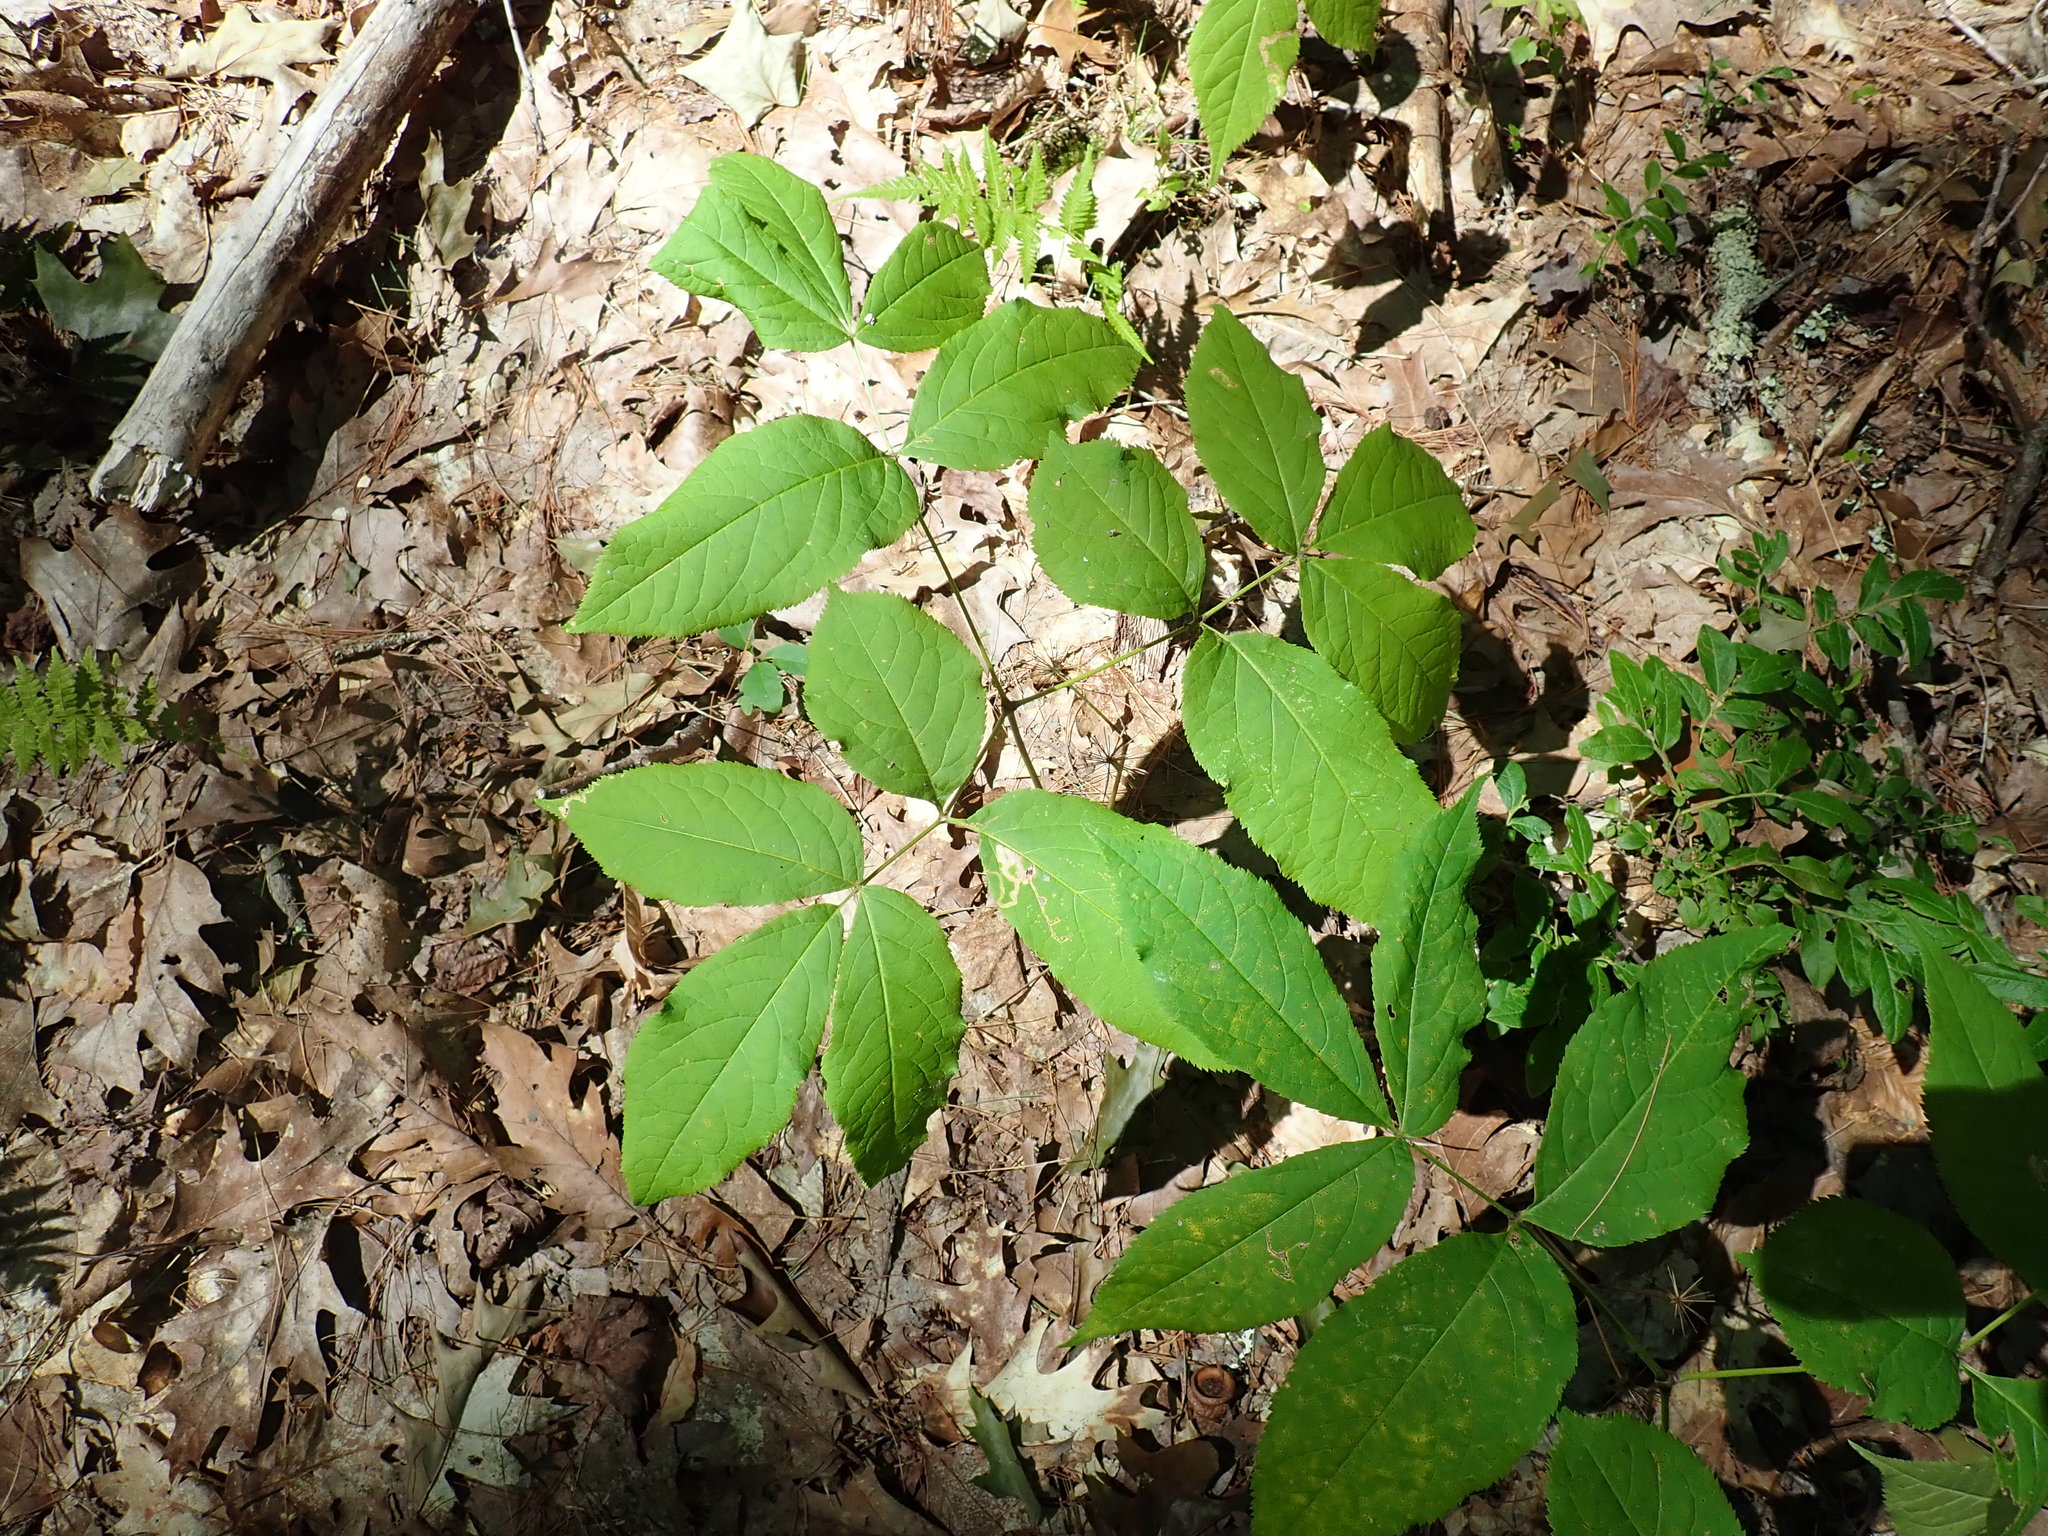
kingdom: Plantae
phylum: Tracheophyta
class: Magnoliopsida
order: Apiales
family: Araliaceae
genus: Aralia
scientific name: Aralia nudicaulis
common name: Wild sarsaparilla
